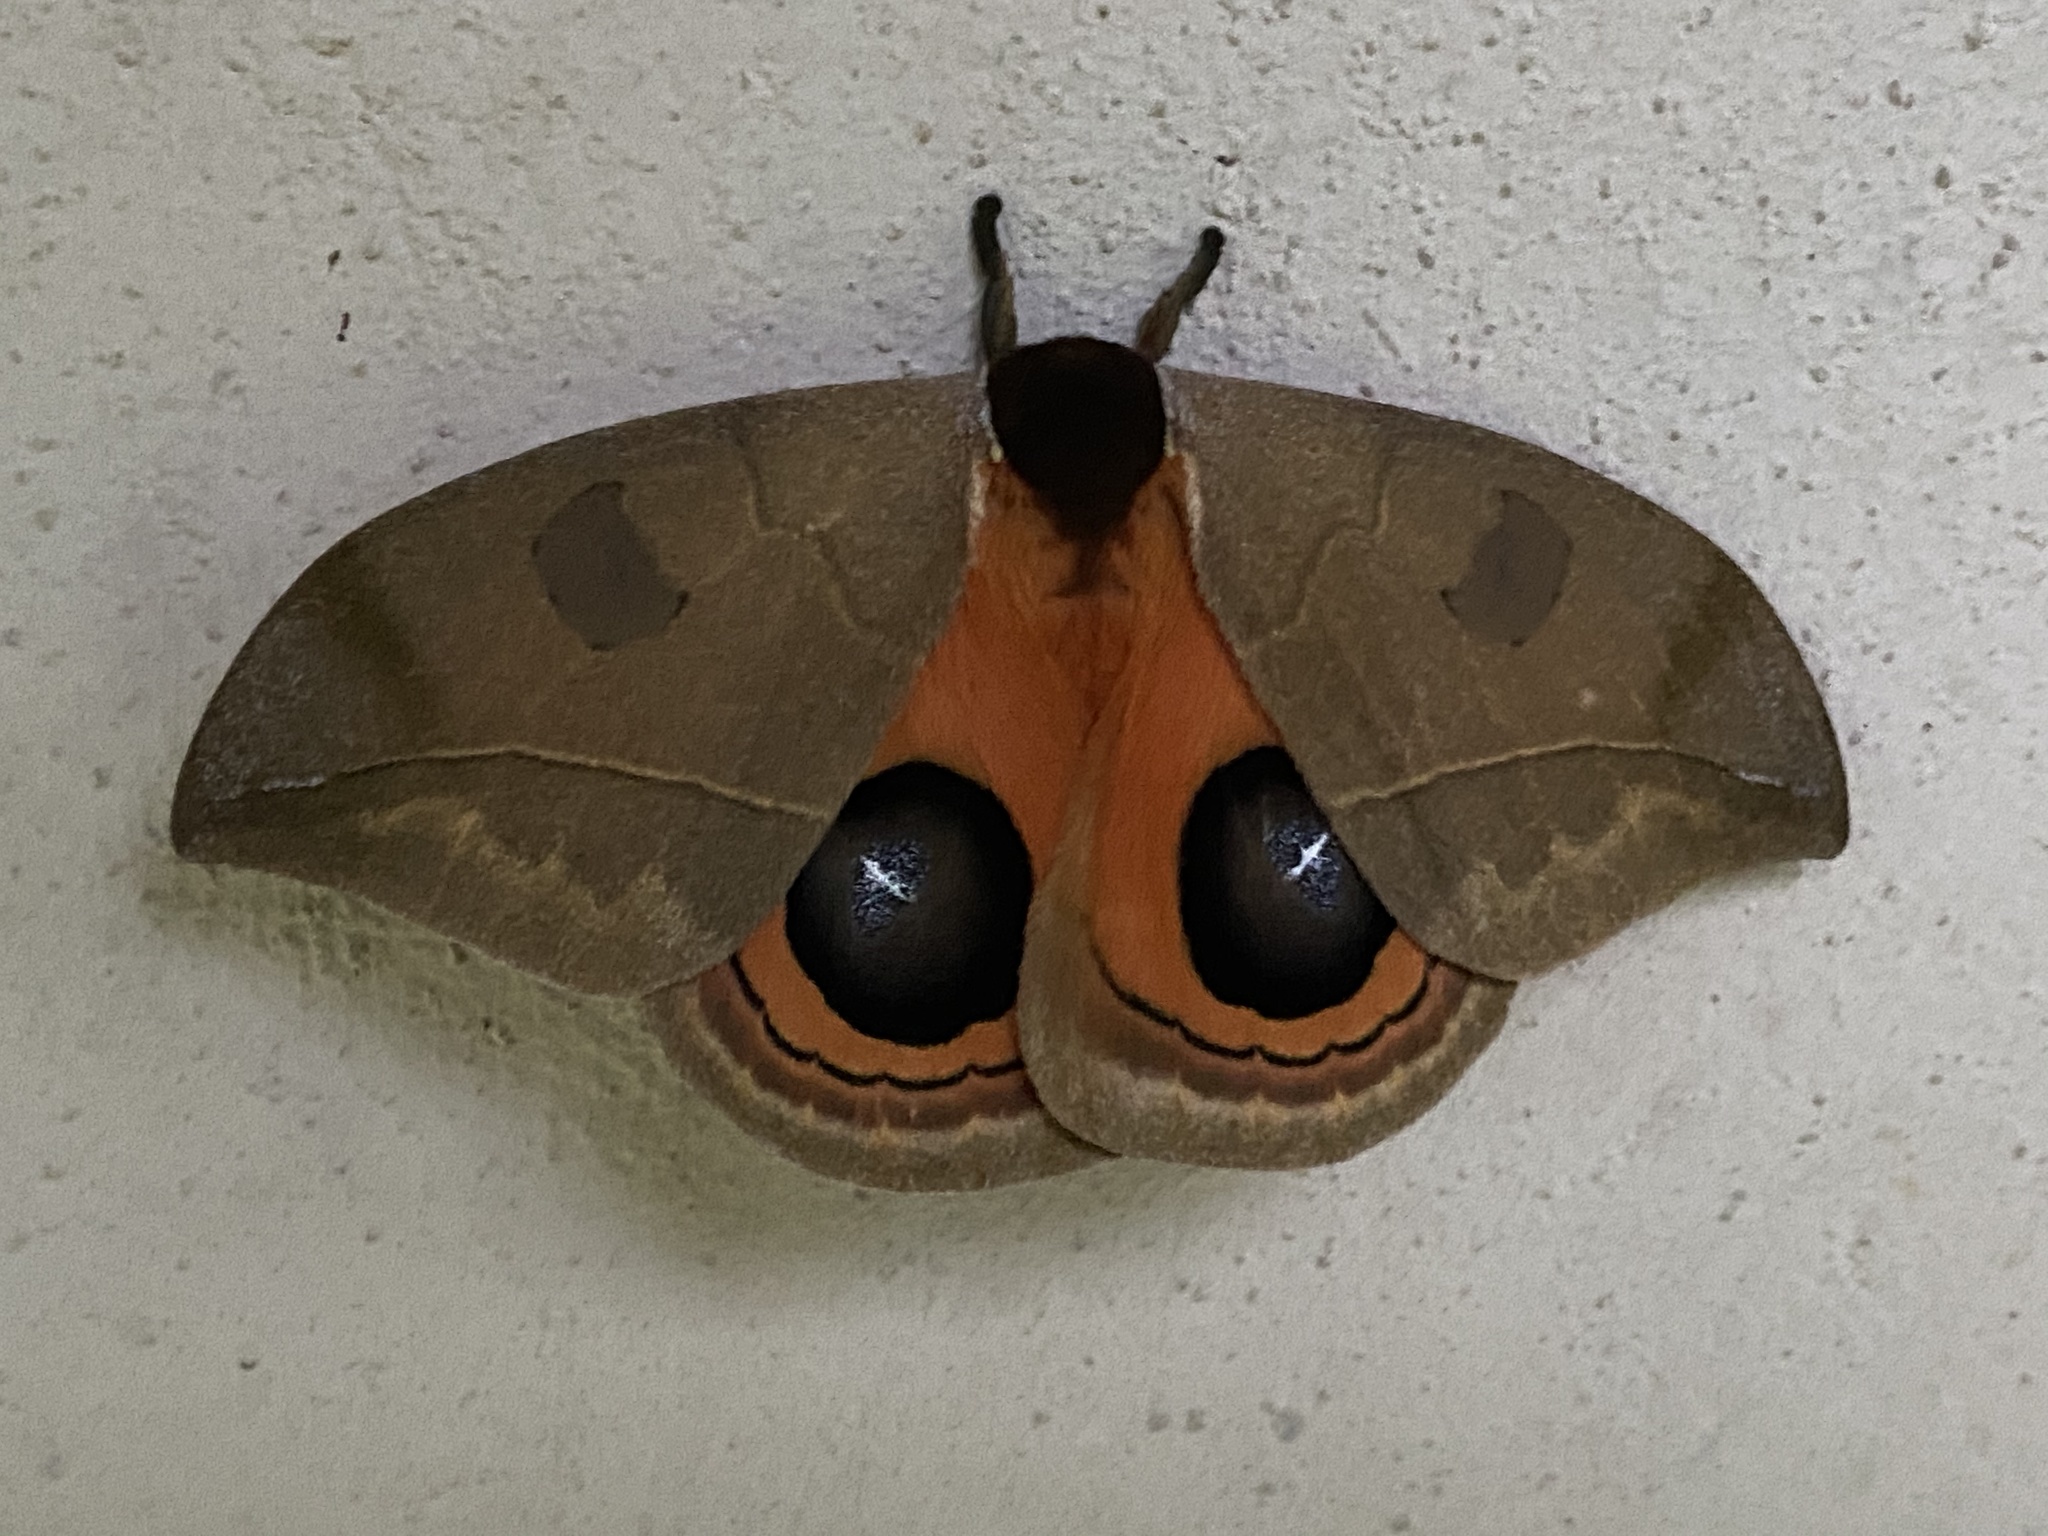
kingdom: Animalia
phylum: Arthropoda
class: Insecta
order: Lepidoptera
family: Saturniidae
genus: Automeris
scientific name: Automeris illustris
